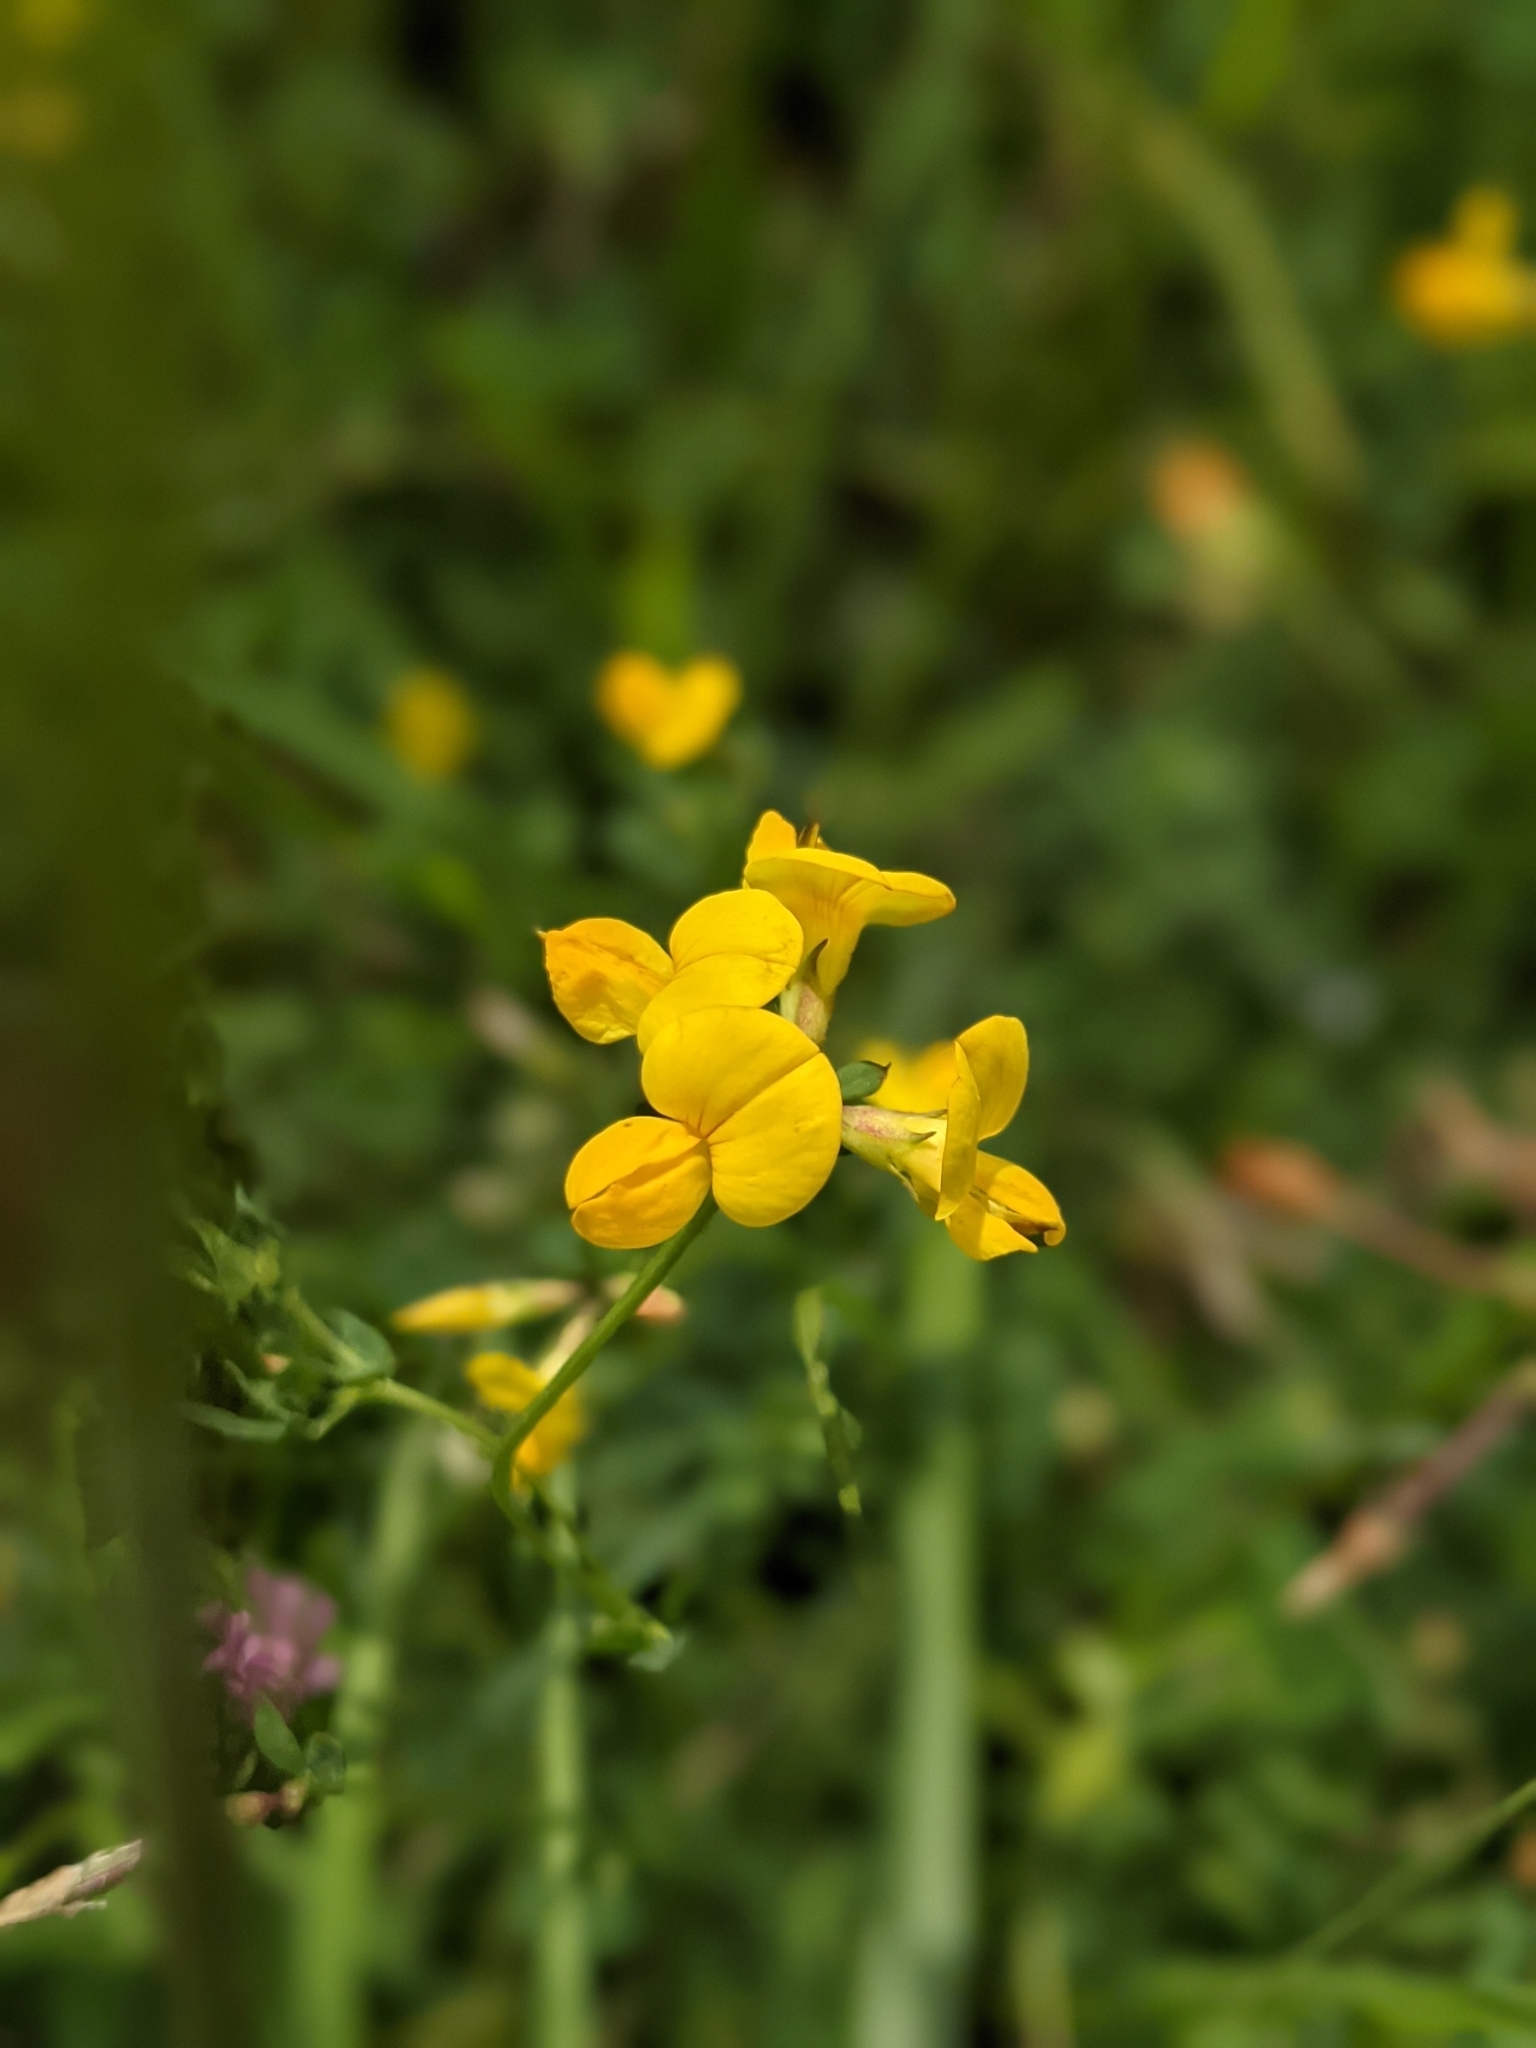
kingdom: Plantae
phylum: Tracheophyta
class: Magnoliopsida
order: Fabales
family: Fabaceae
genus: Lotus
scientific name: Lotus corniculatus
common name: Common bird's-foot-trefoil
